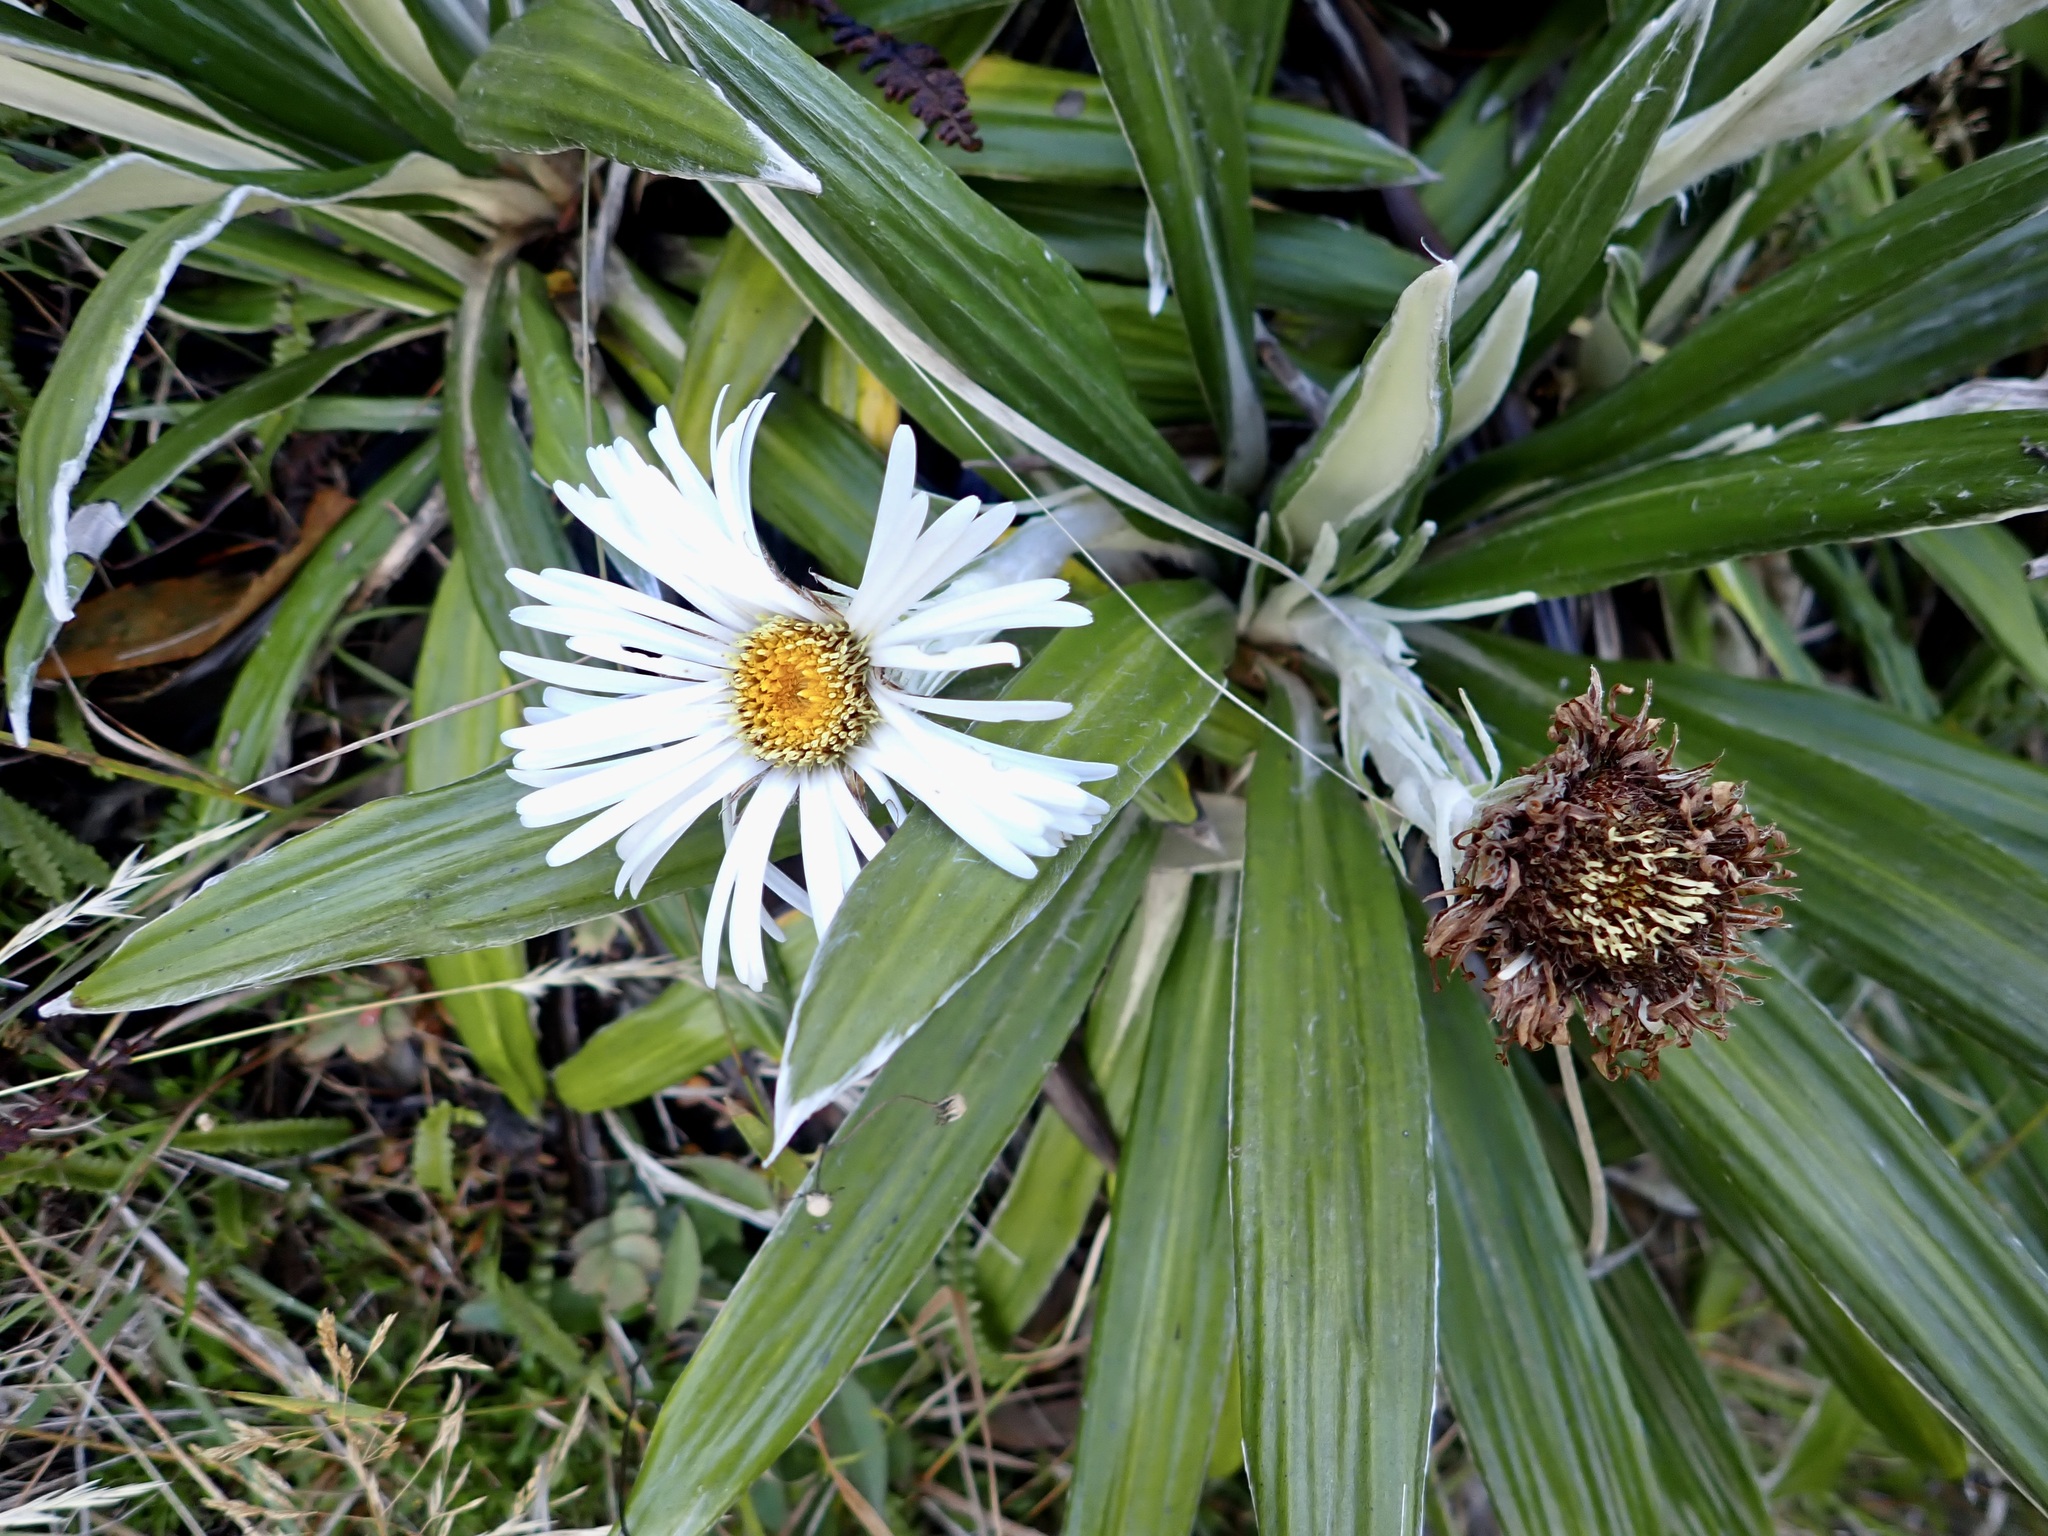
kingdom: Plantae
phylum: Tracheophyta
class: Magnoliopsida
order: Asterales
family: Asteraceae
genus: Celmisia
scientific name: Celmisia spectabilis
